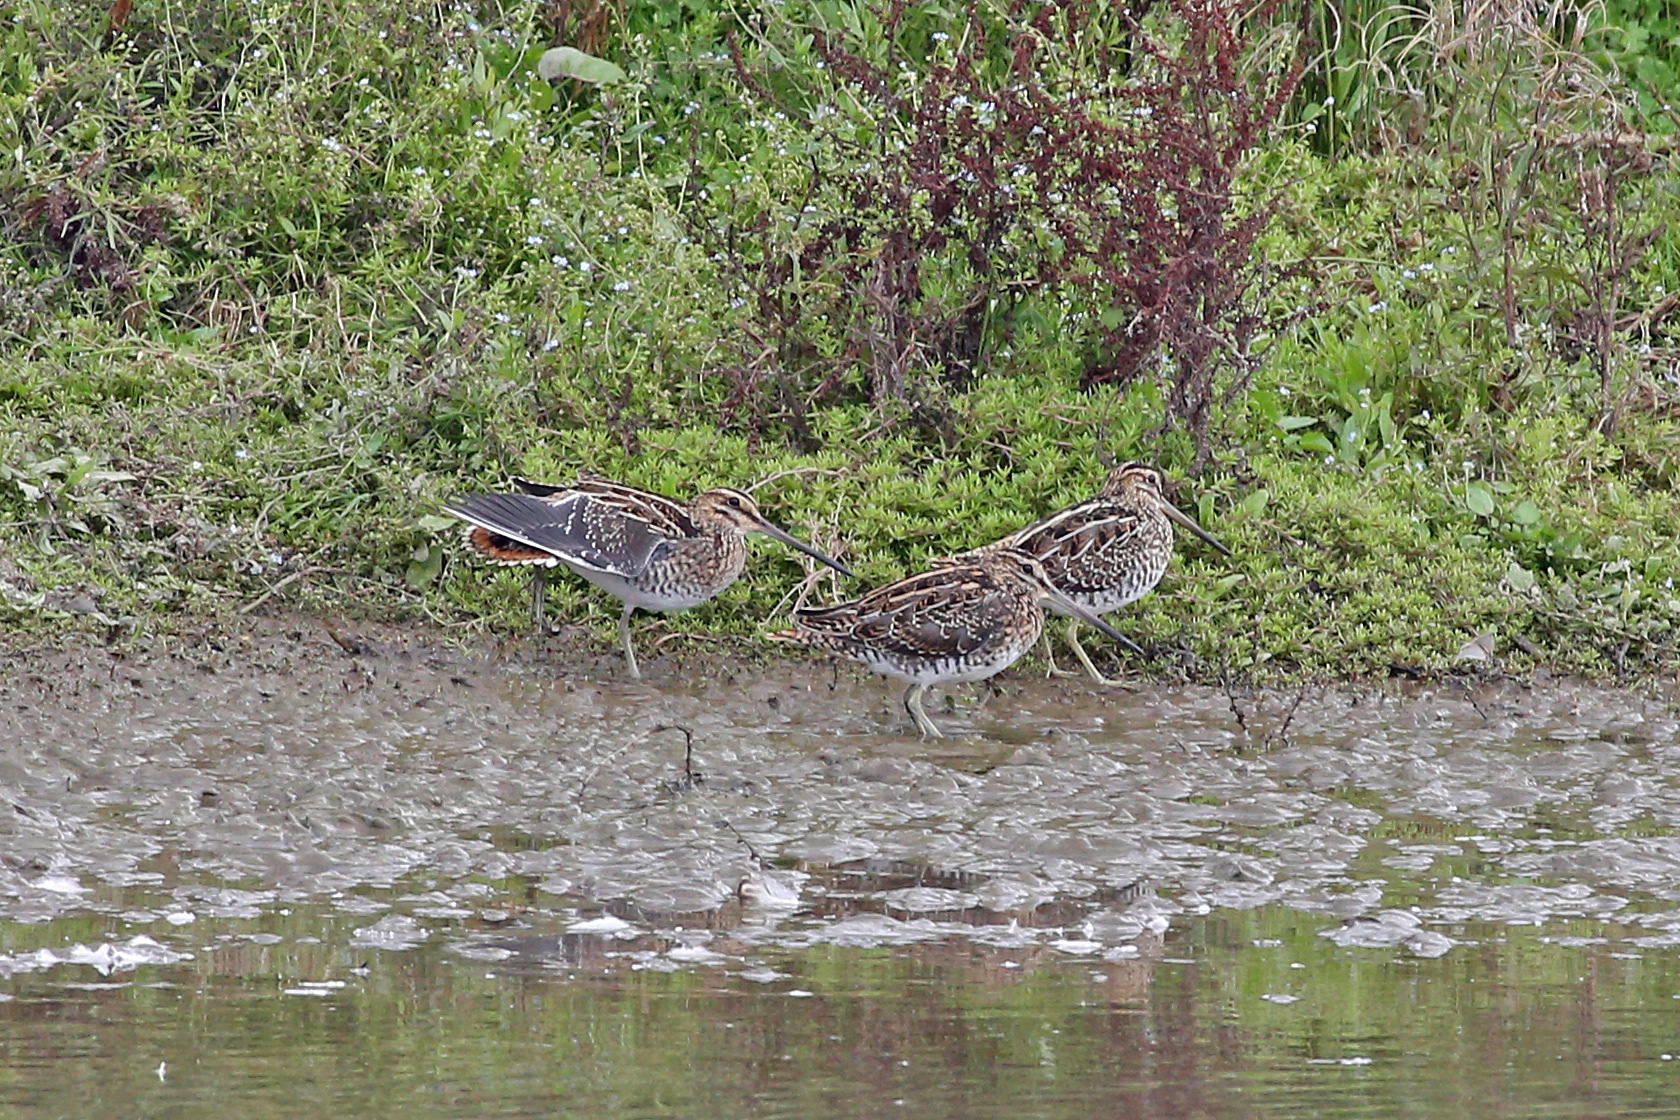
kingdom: Animalia
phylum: Chordata
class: Aves
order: Charadriiformes
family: Scolopacidae
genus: Gallinago
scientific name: Gallinago gallinago
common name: Common snipe
